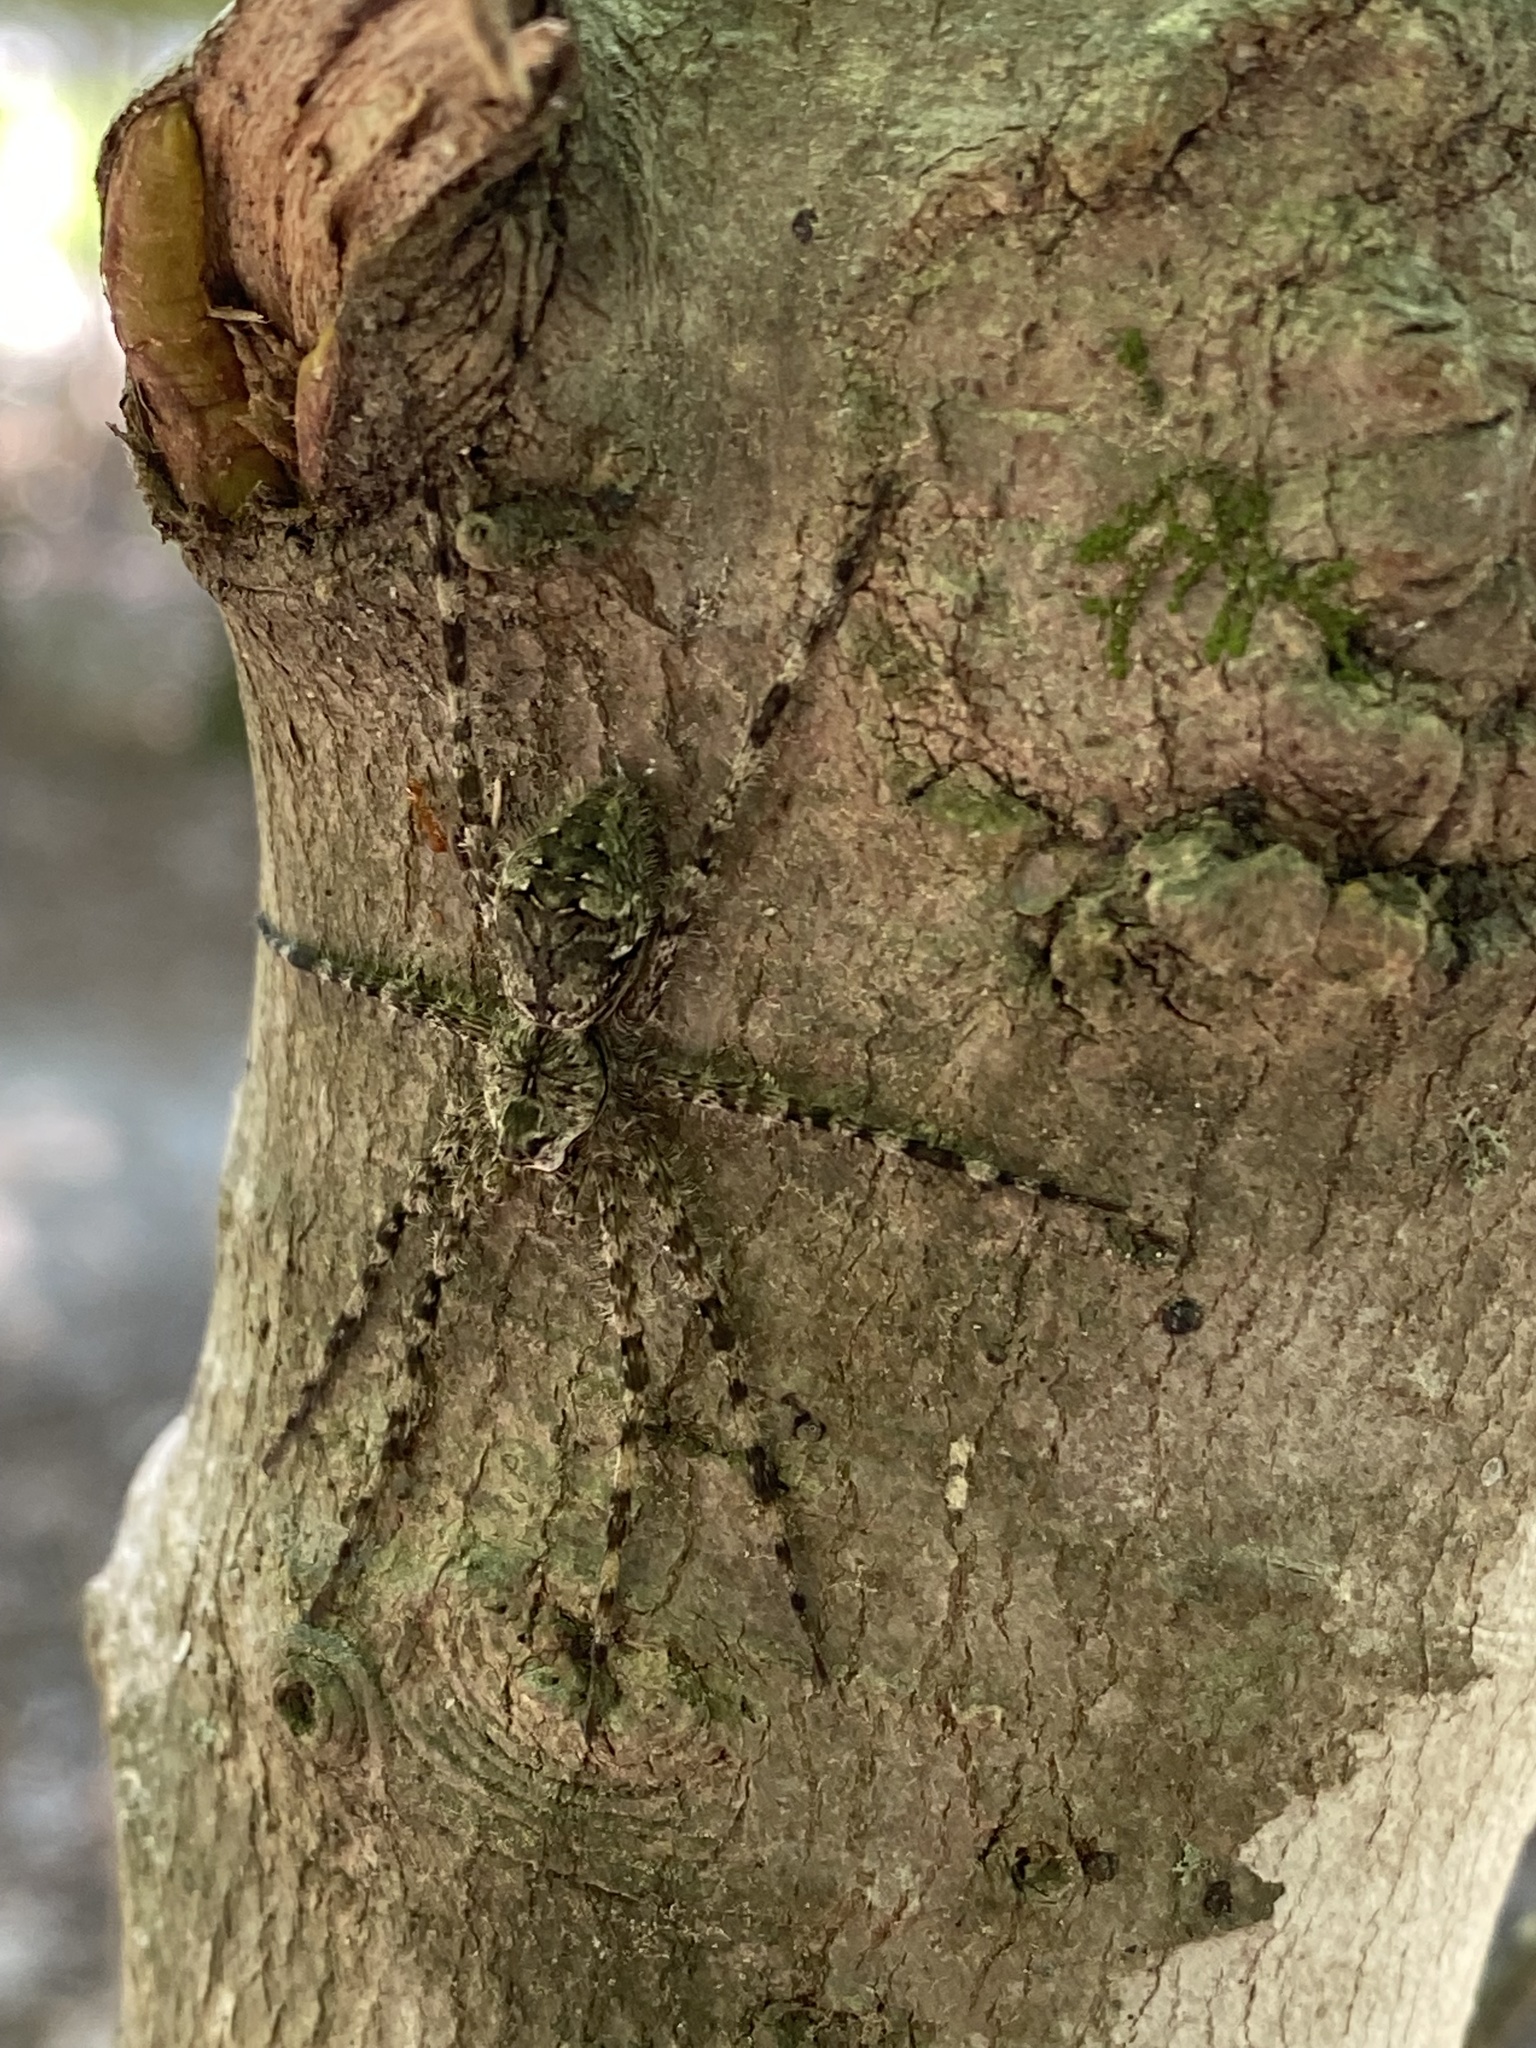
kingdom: Animalia
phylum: Arthropoda
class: Arachnida
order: Araneae
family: Pisauridae
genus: Dolomedes
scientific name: Dolomedes albineus
